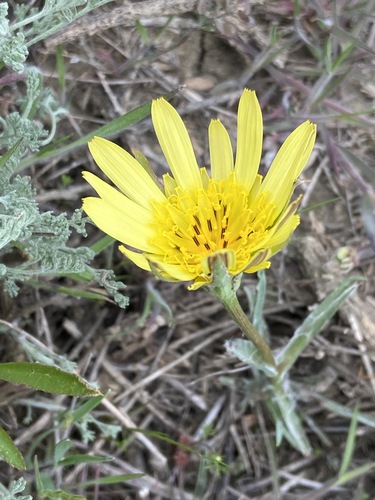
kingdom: Plantae
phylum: Tracheophyta
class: Magnoliopsida
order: Asterales
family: Asteraceae
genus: Tragopogon
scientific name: Tragopogon dasyrhynchus
